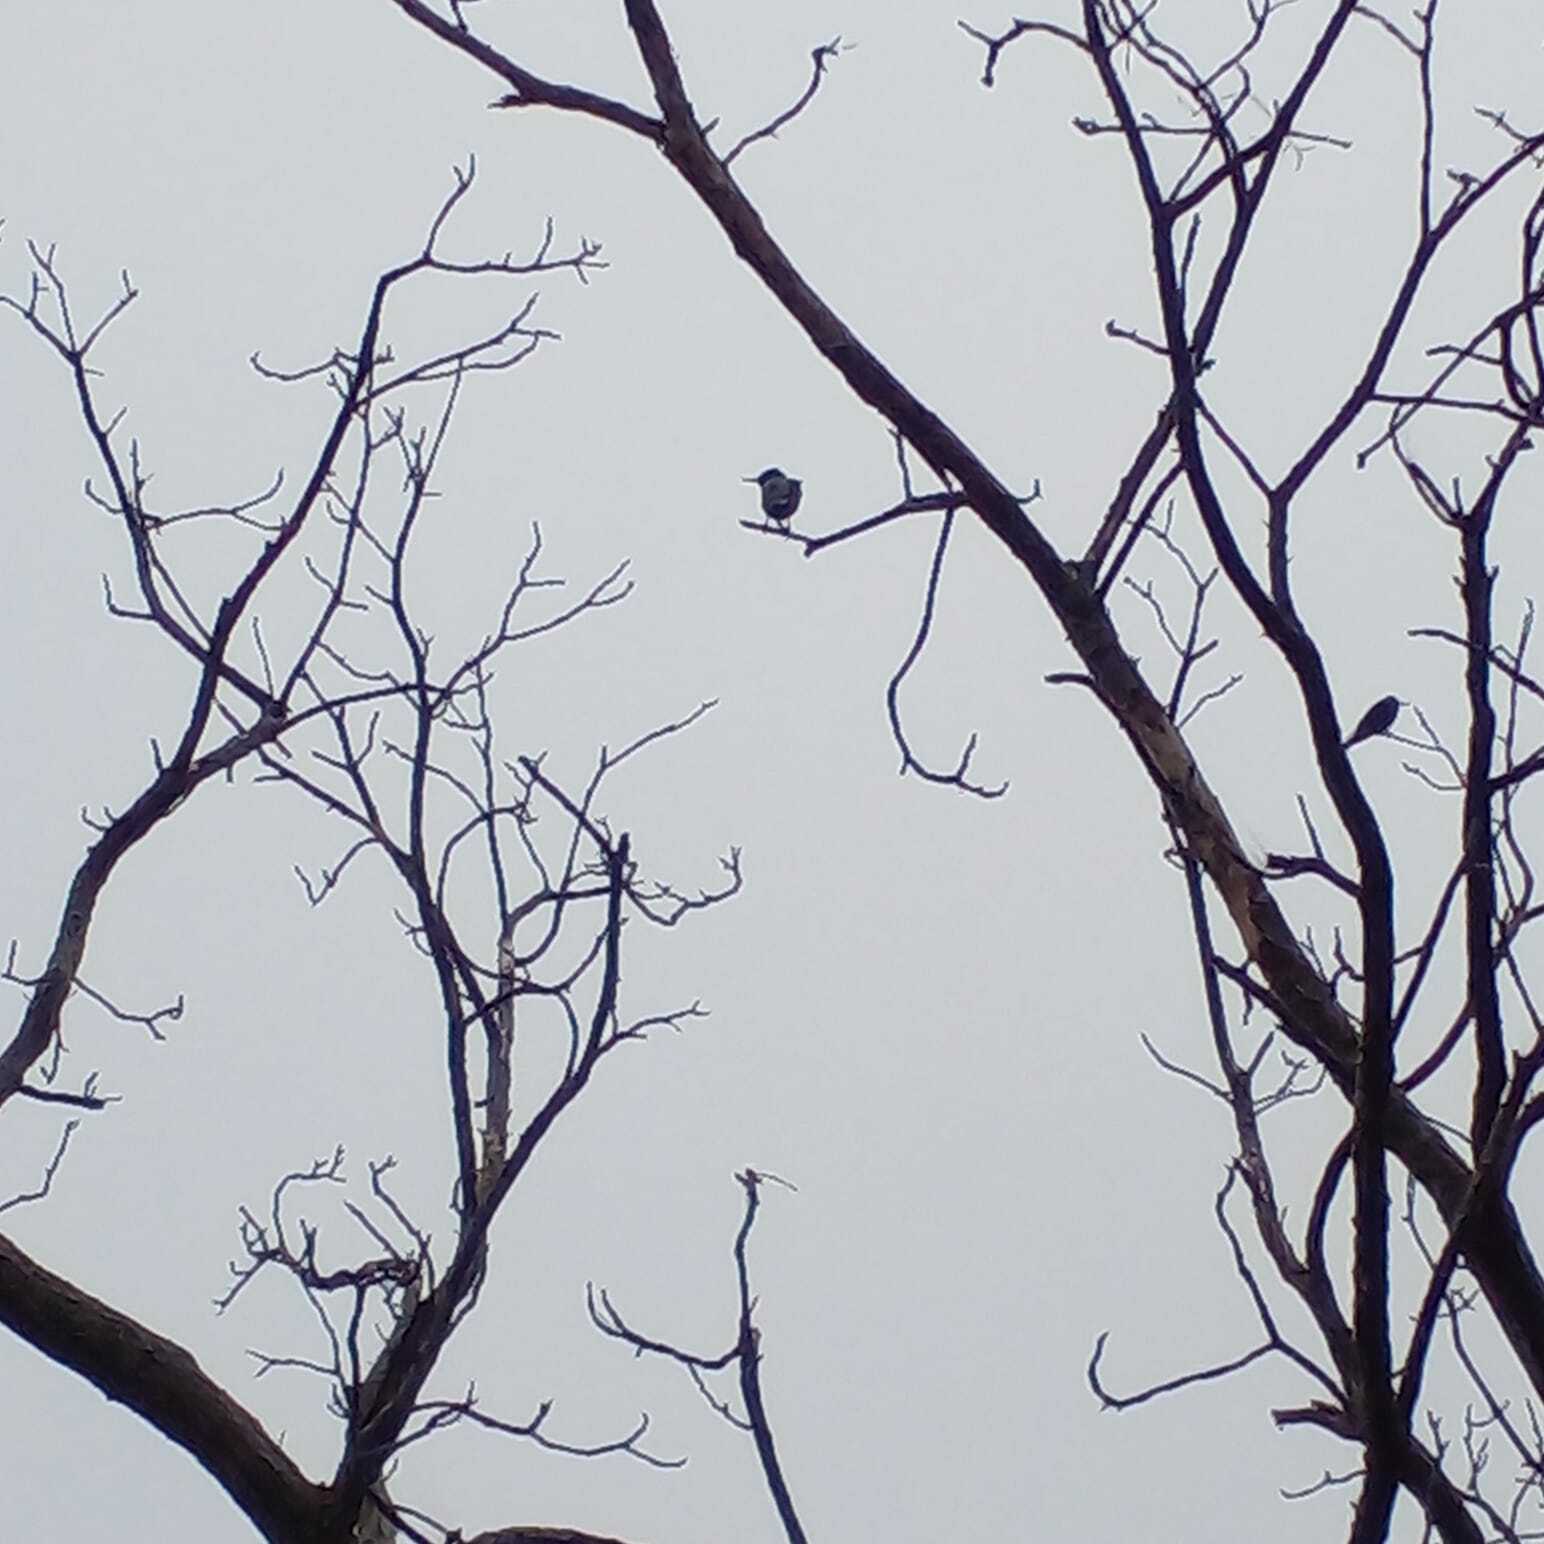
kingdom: Animalia
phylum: Chordata
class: Aves
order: Passeriformes
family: Sturnidae
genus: Sturnus
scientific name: Sturnus vulgaris
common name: Common starling
